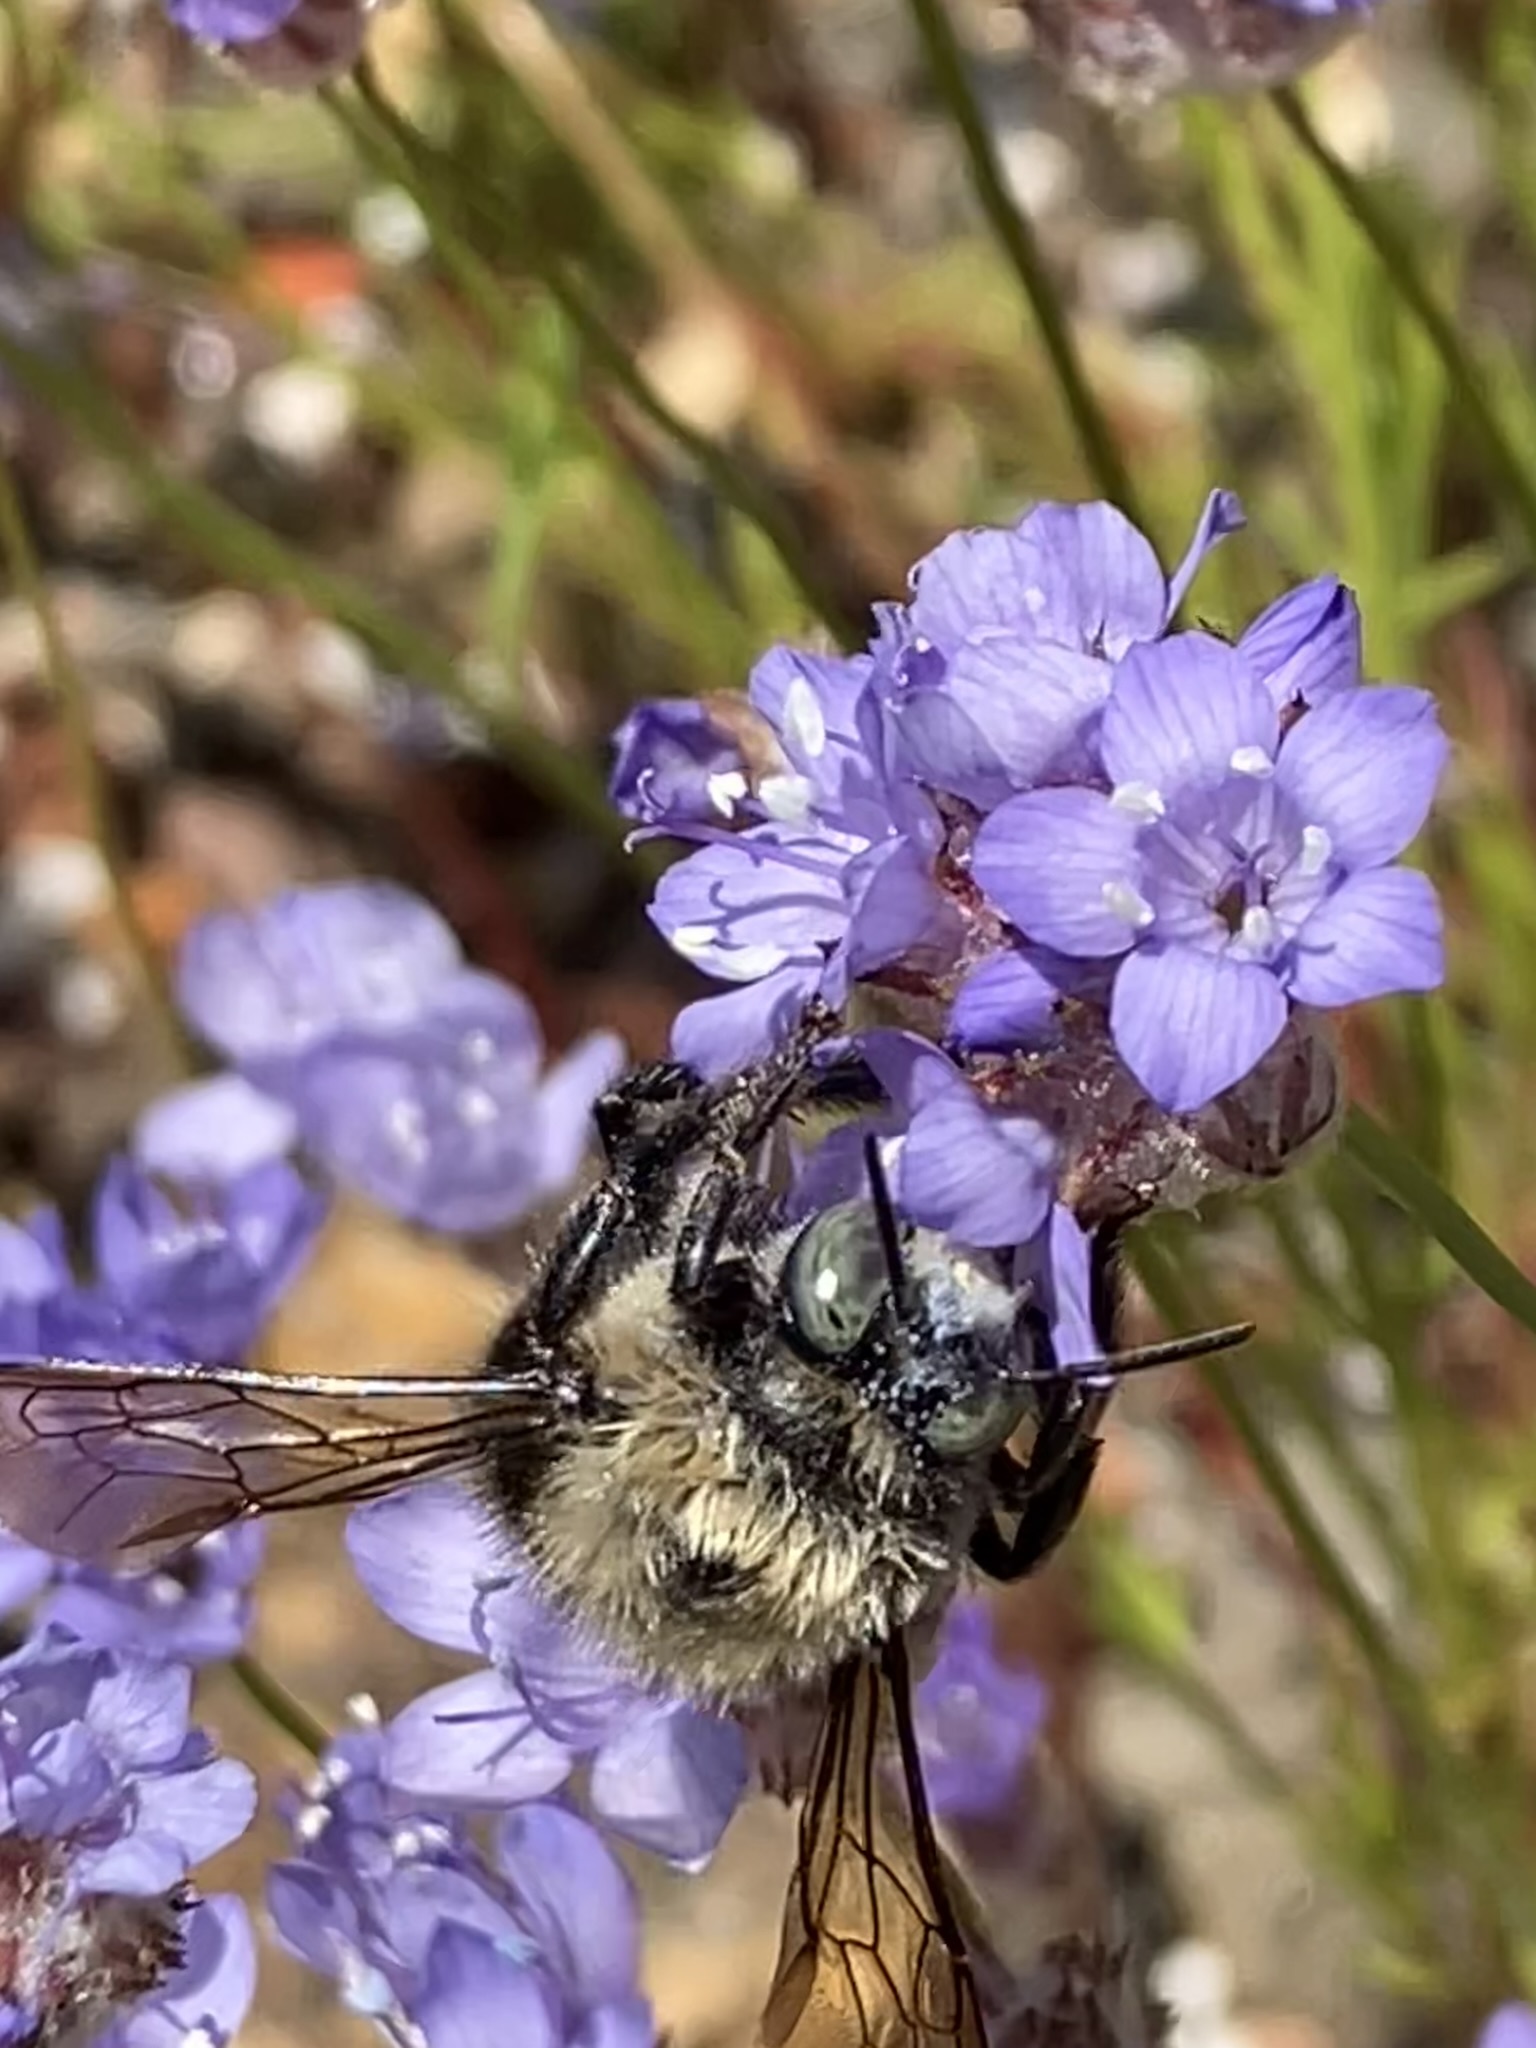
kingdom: Animalia
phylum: Arthropoda
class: Insecta
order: Hymenoptera
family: Apidae
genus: Xylocopa
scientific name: Xylocopa tabaniformis
